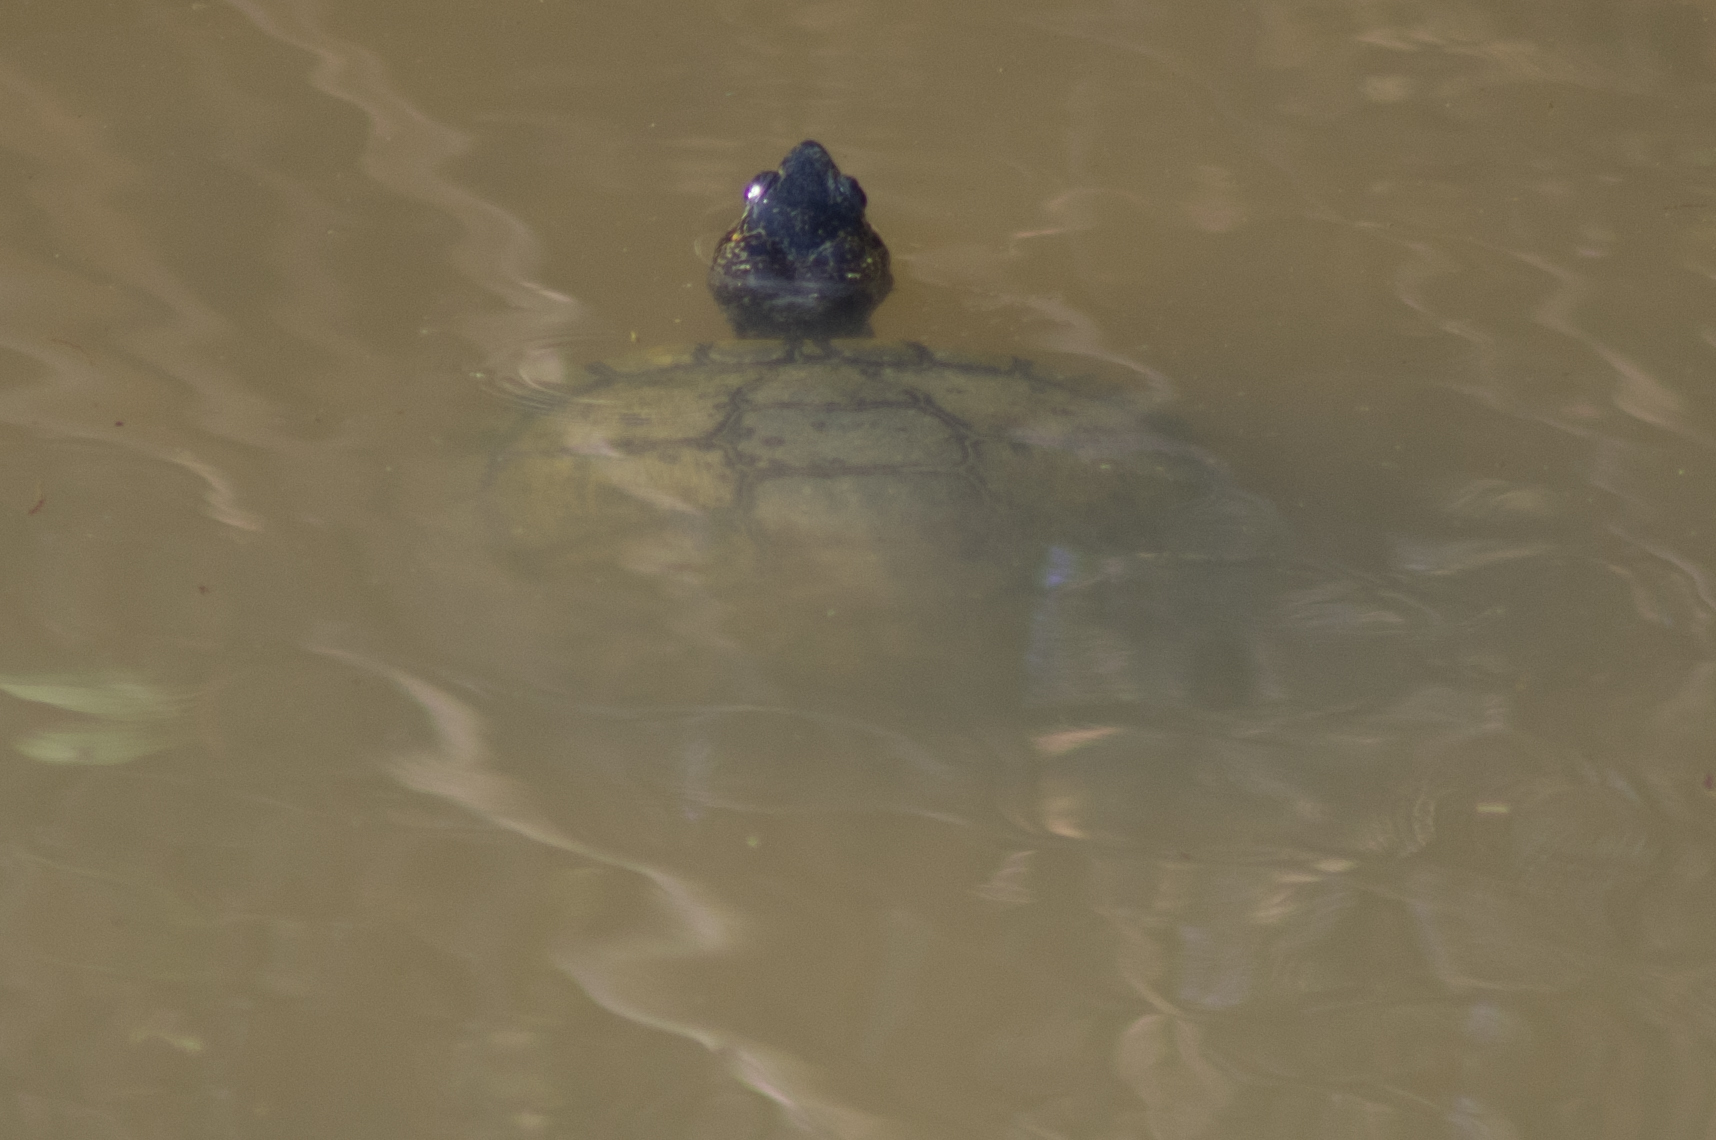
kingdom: Animalia
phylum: Chordata
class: Testudines
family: Emydidae
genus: Trachemys
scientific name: Trachemys scripta
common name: Slider
